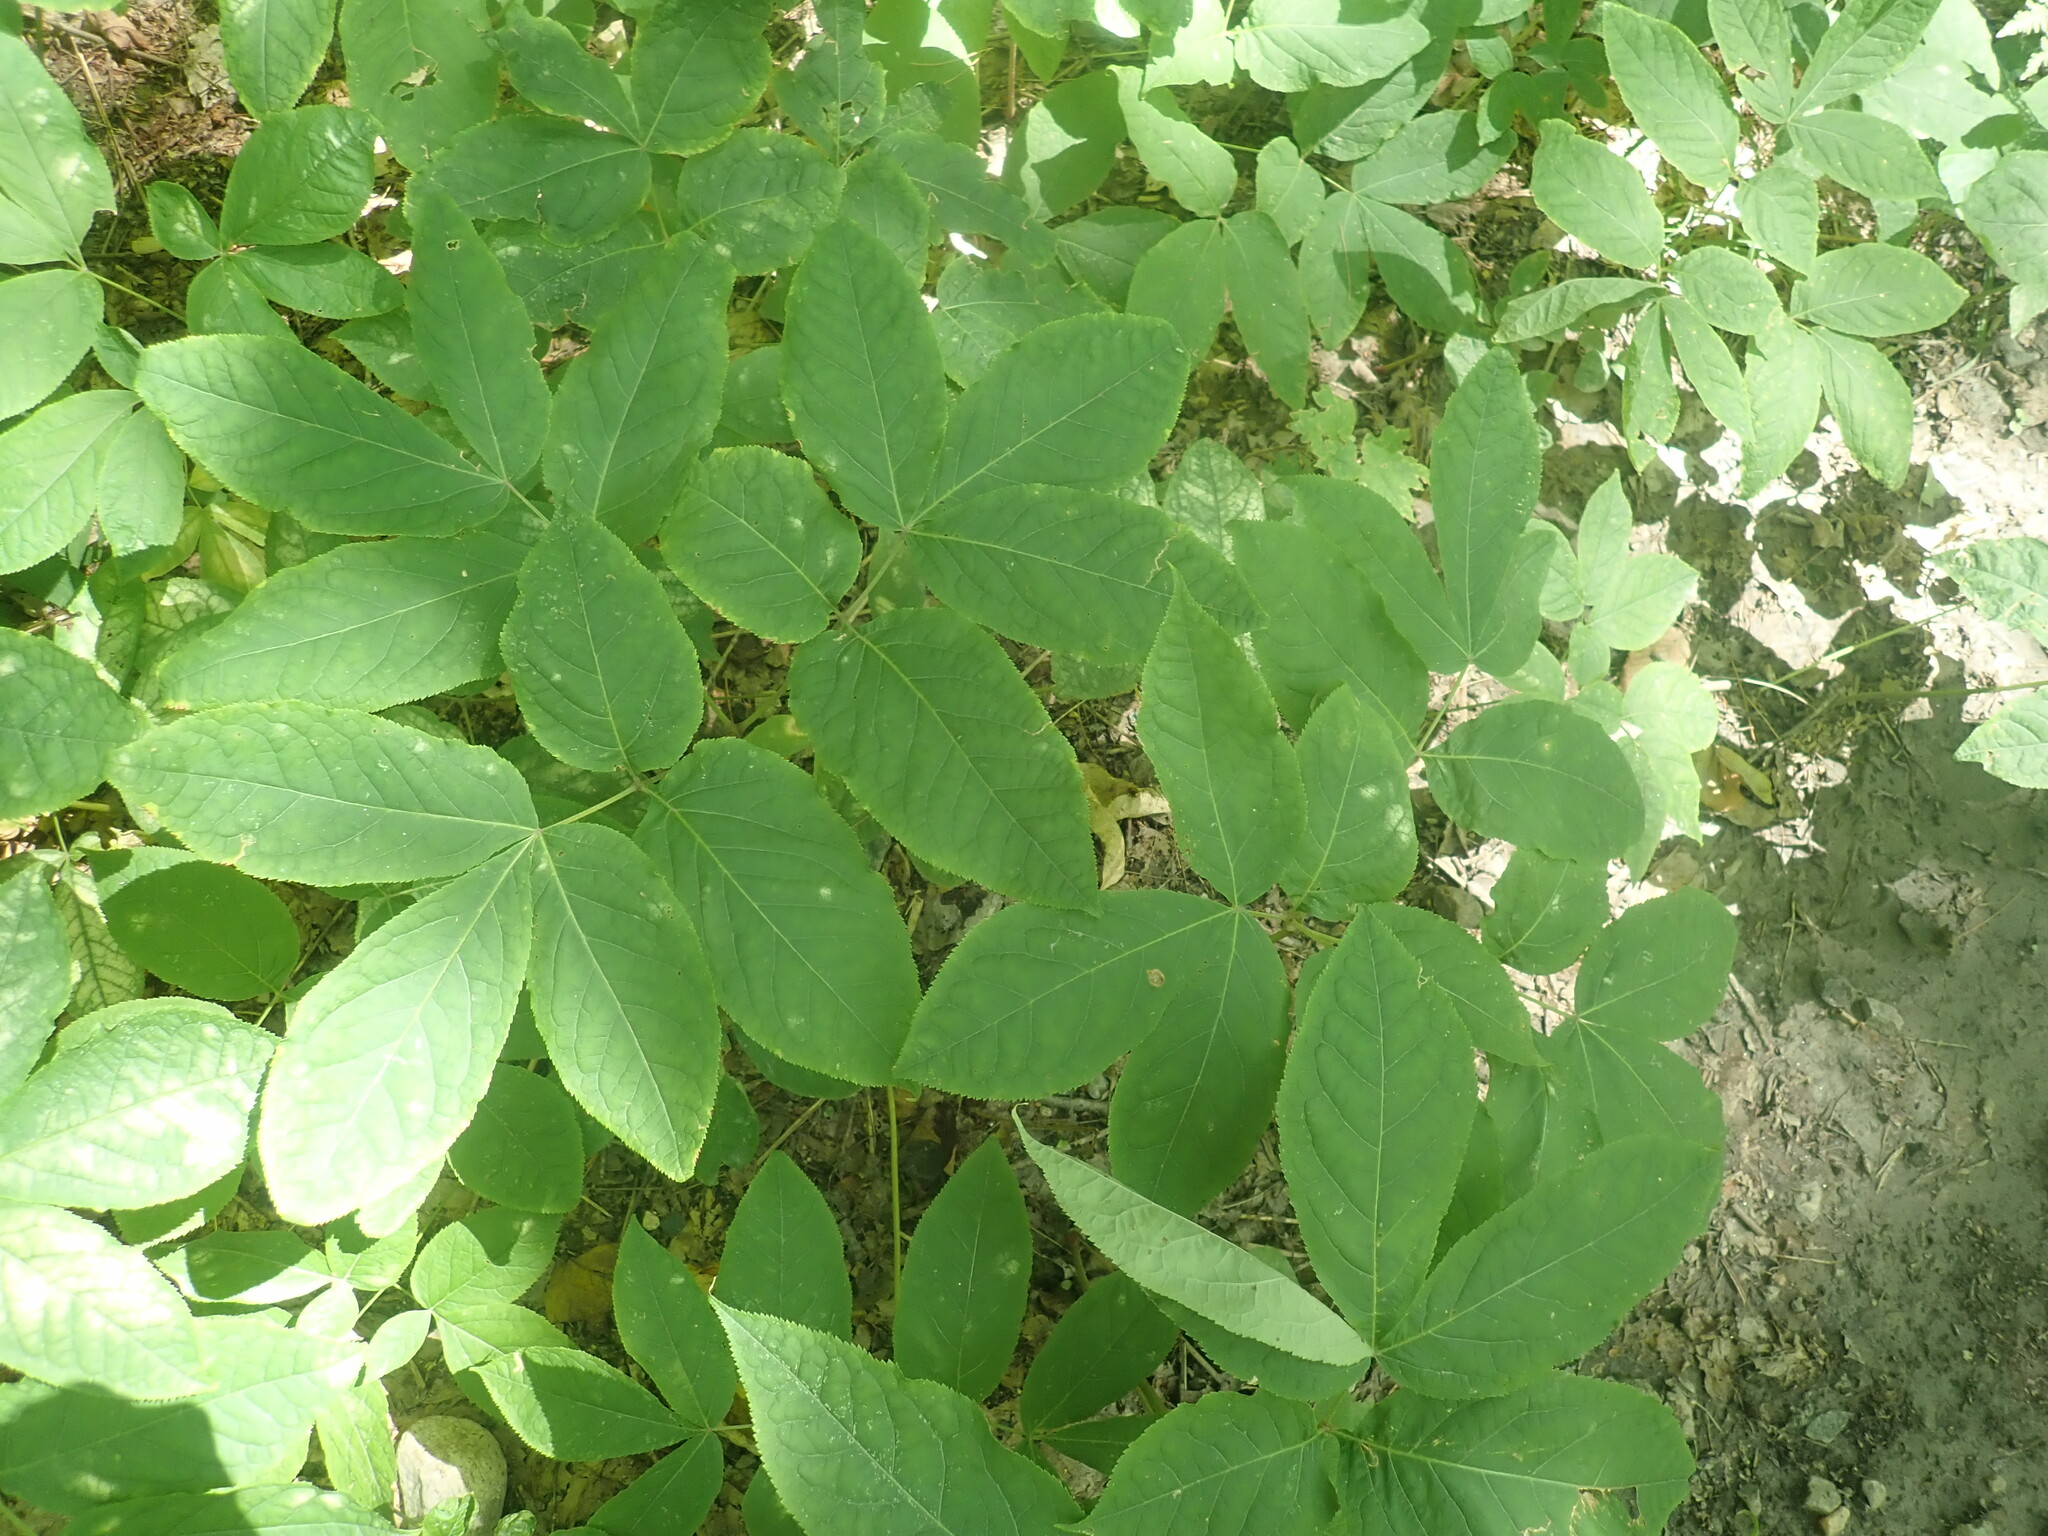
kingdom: Plantae
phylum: Tracheophyta
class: Magnoliopsida
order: Apiales
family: Araliaceae
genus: Aralia
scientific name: Aralia nudicaulis
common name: Wild sarsaparilla
